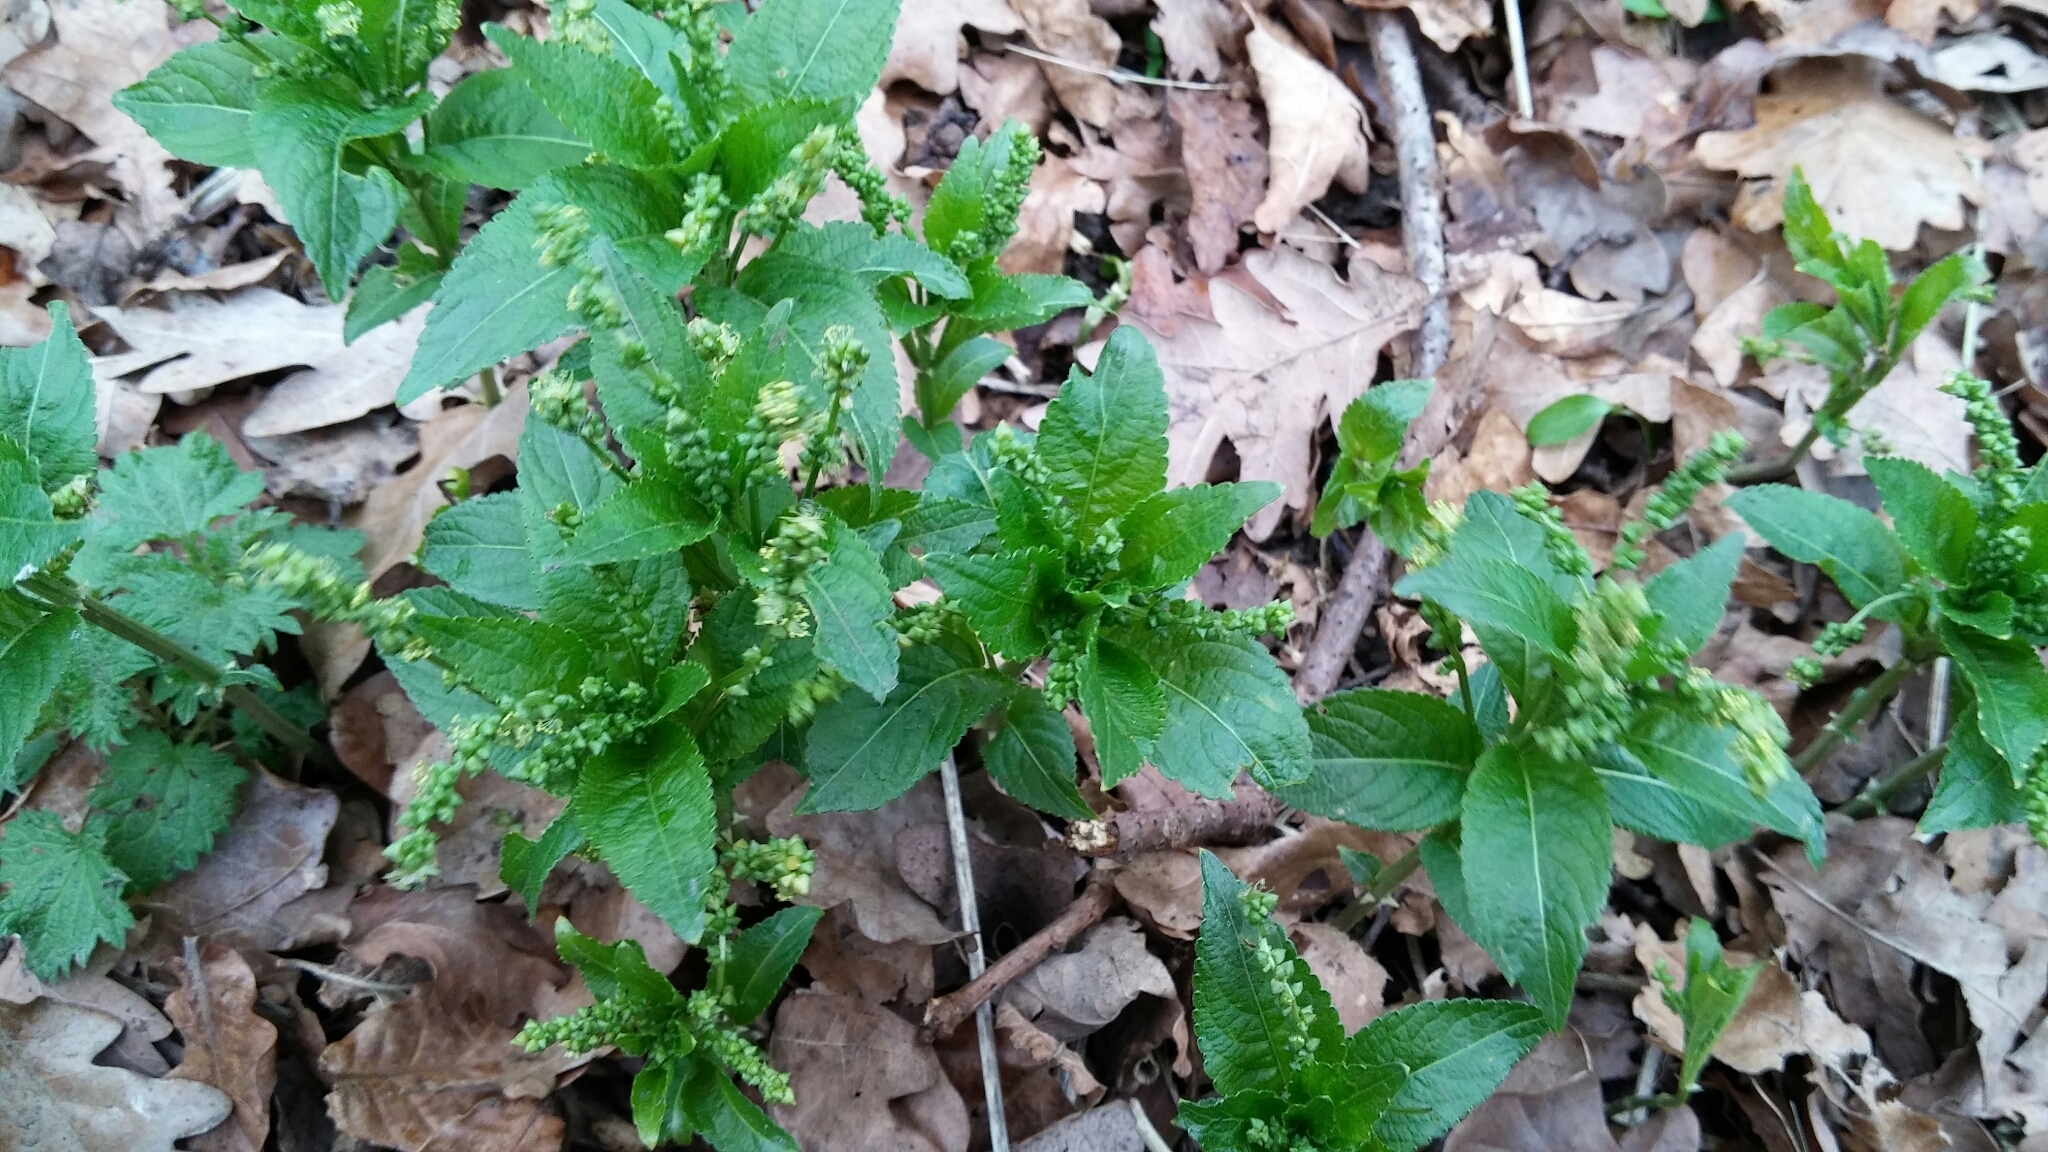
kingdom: Plantae
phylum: Tracheophyta
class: Magnoliopsida
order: Malpighiales
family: Euphorbiaceae
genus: Mercurialis
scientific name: Mercurialis perennis
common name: Dog mercury
